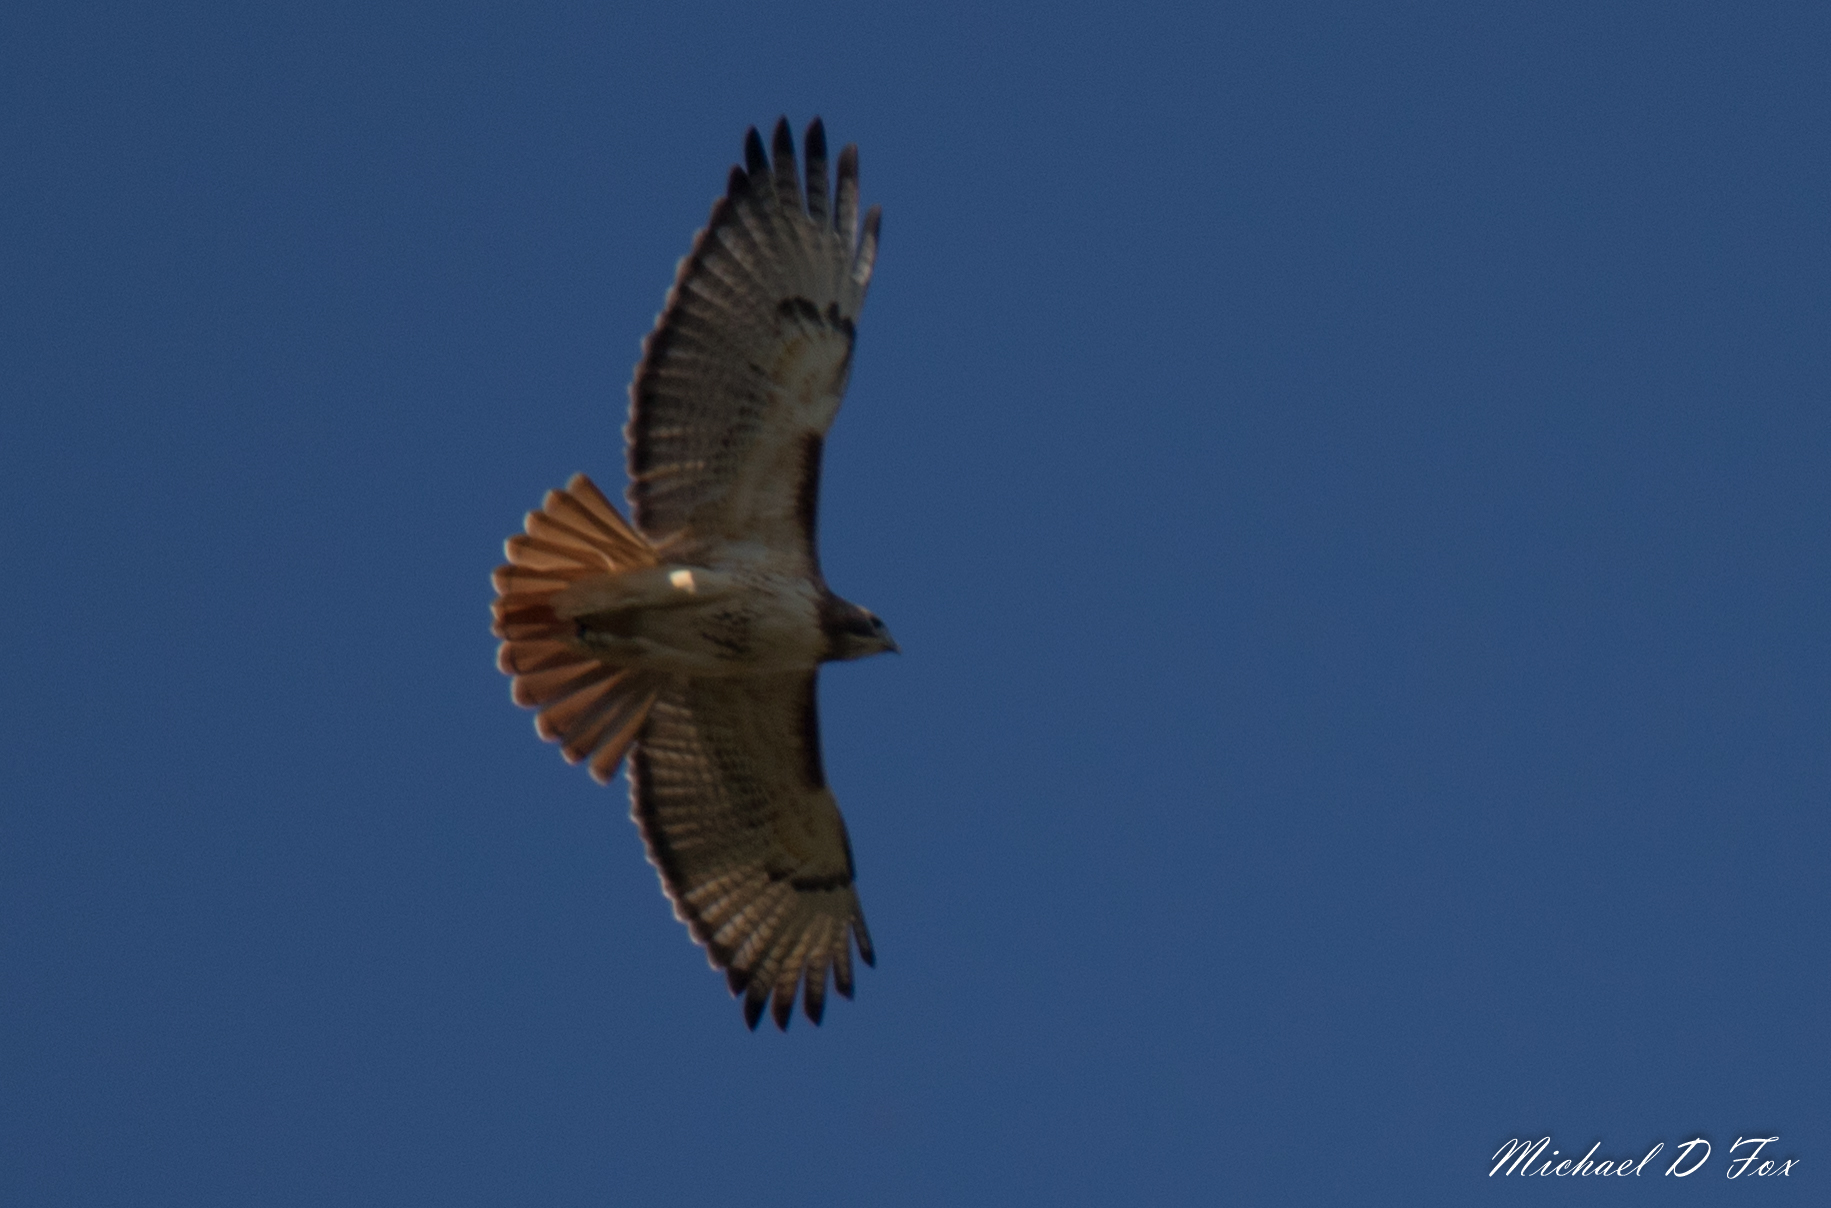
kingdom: Animalia
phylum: Chordata
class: Aves
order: Accipitriformes
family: Accipitridae
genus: Buteo
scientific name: Buteo jamaicensis
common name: Red-tailed hawk
